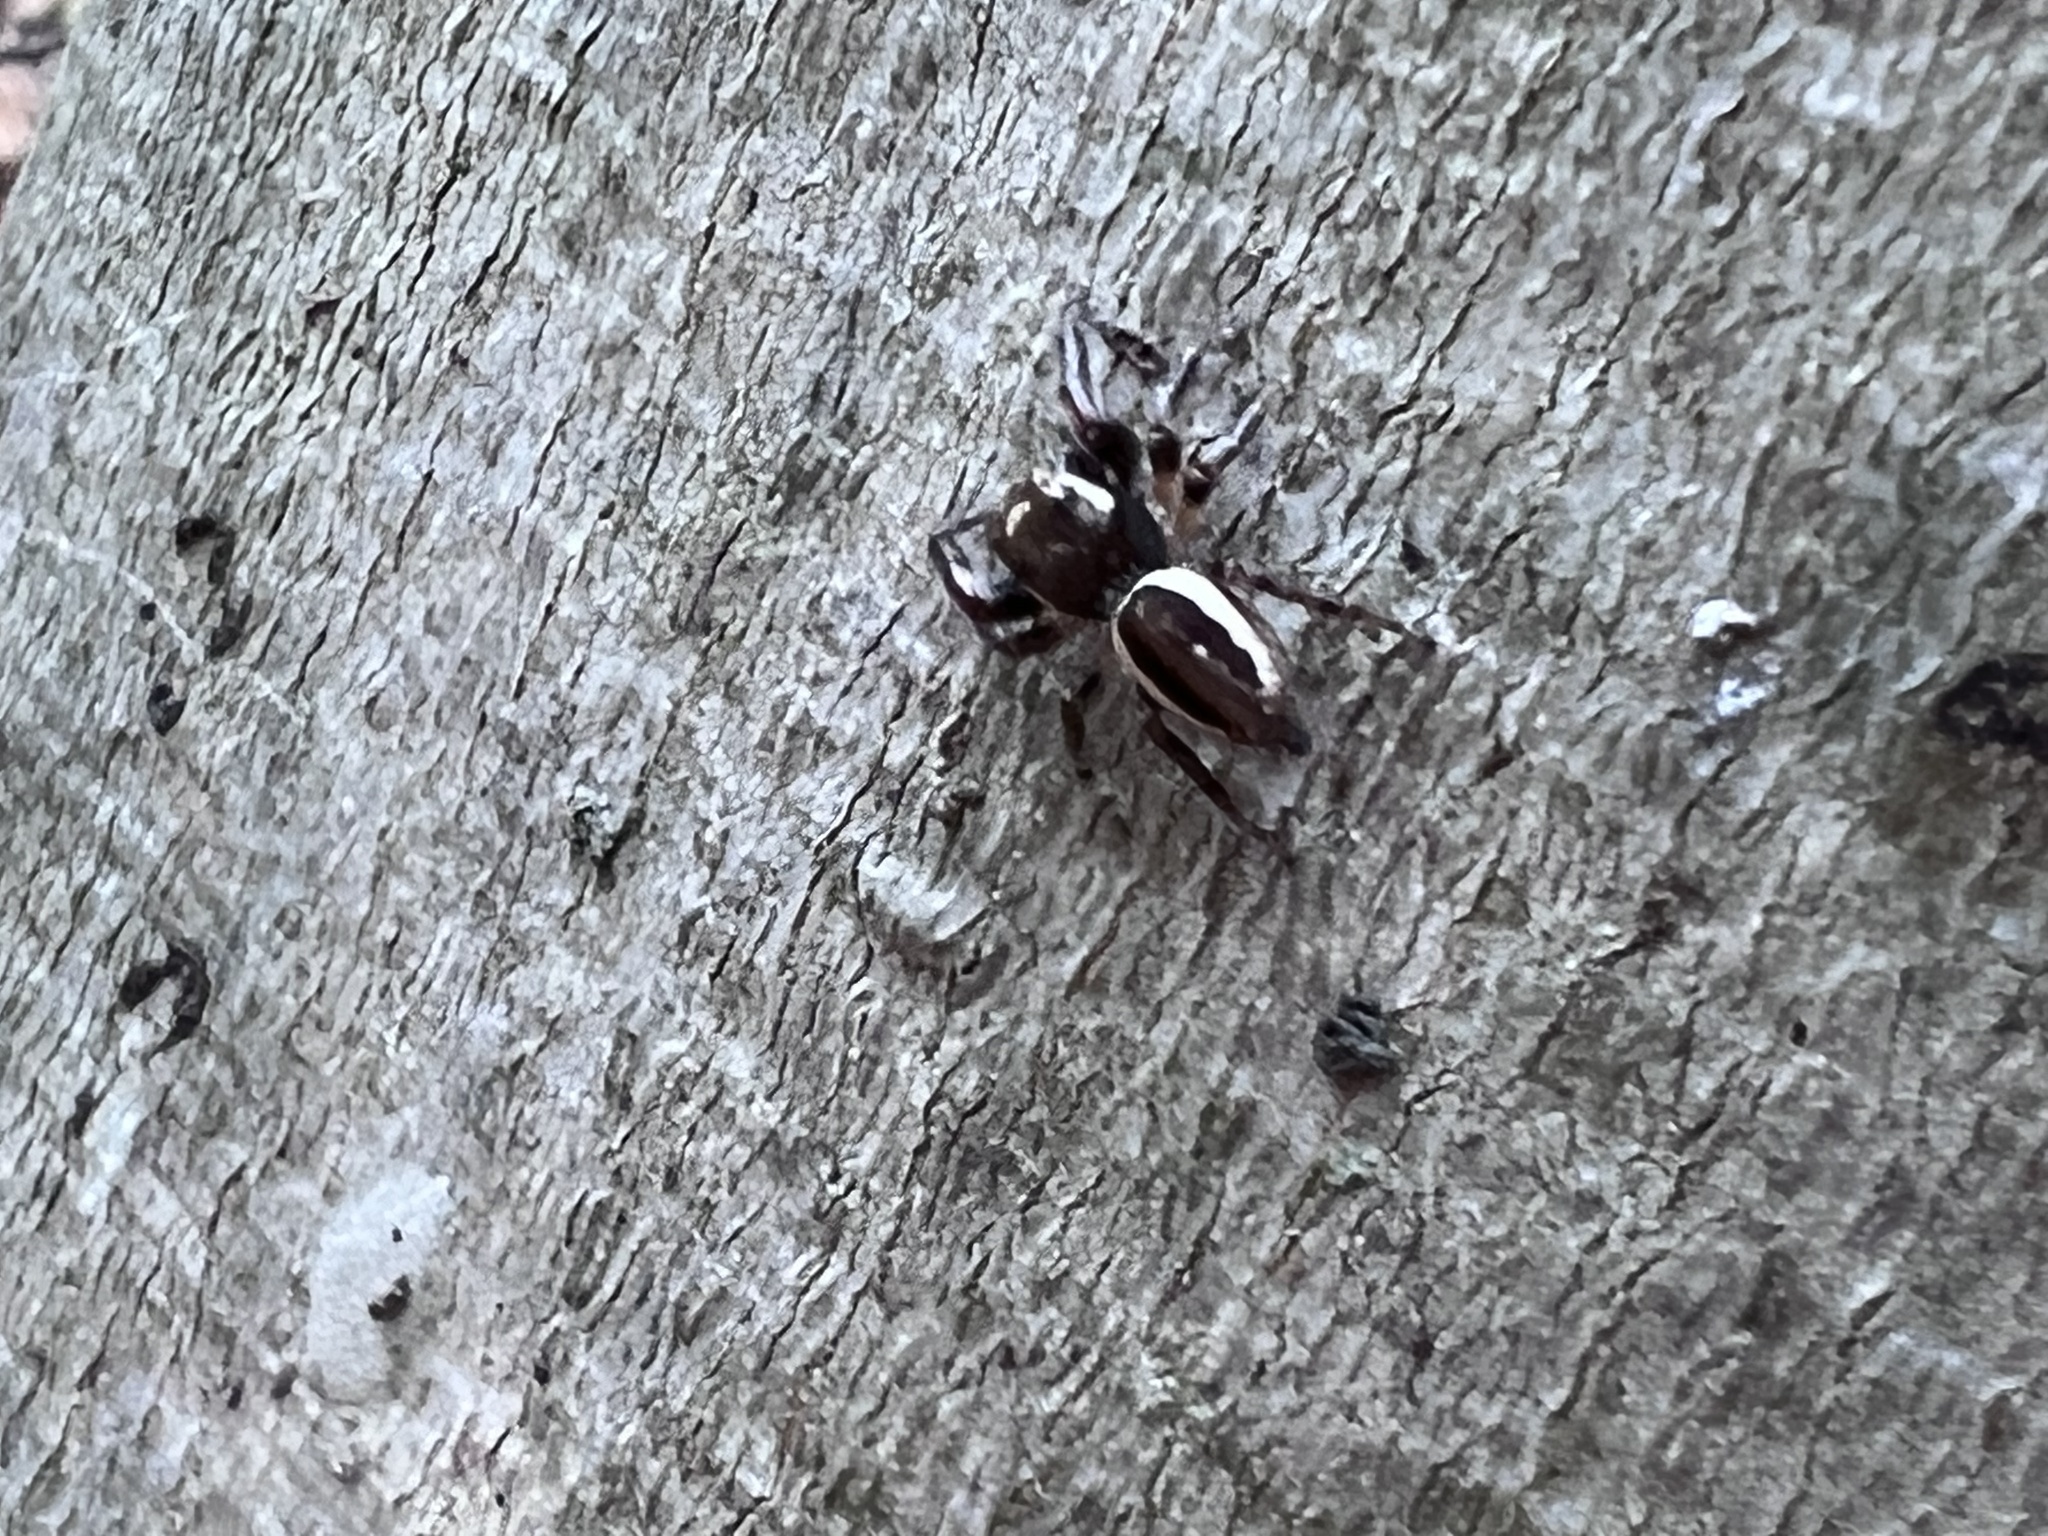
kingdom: Animalia
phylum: Arthropoda
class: Arachnida
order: Araneae
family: Salticidae
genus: Eris
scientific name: Eris militaris
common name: Bronze jumper
